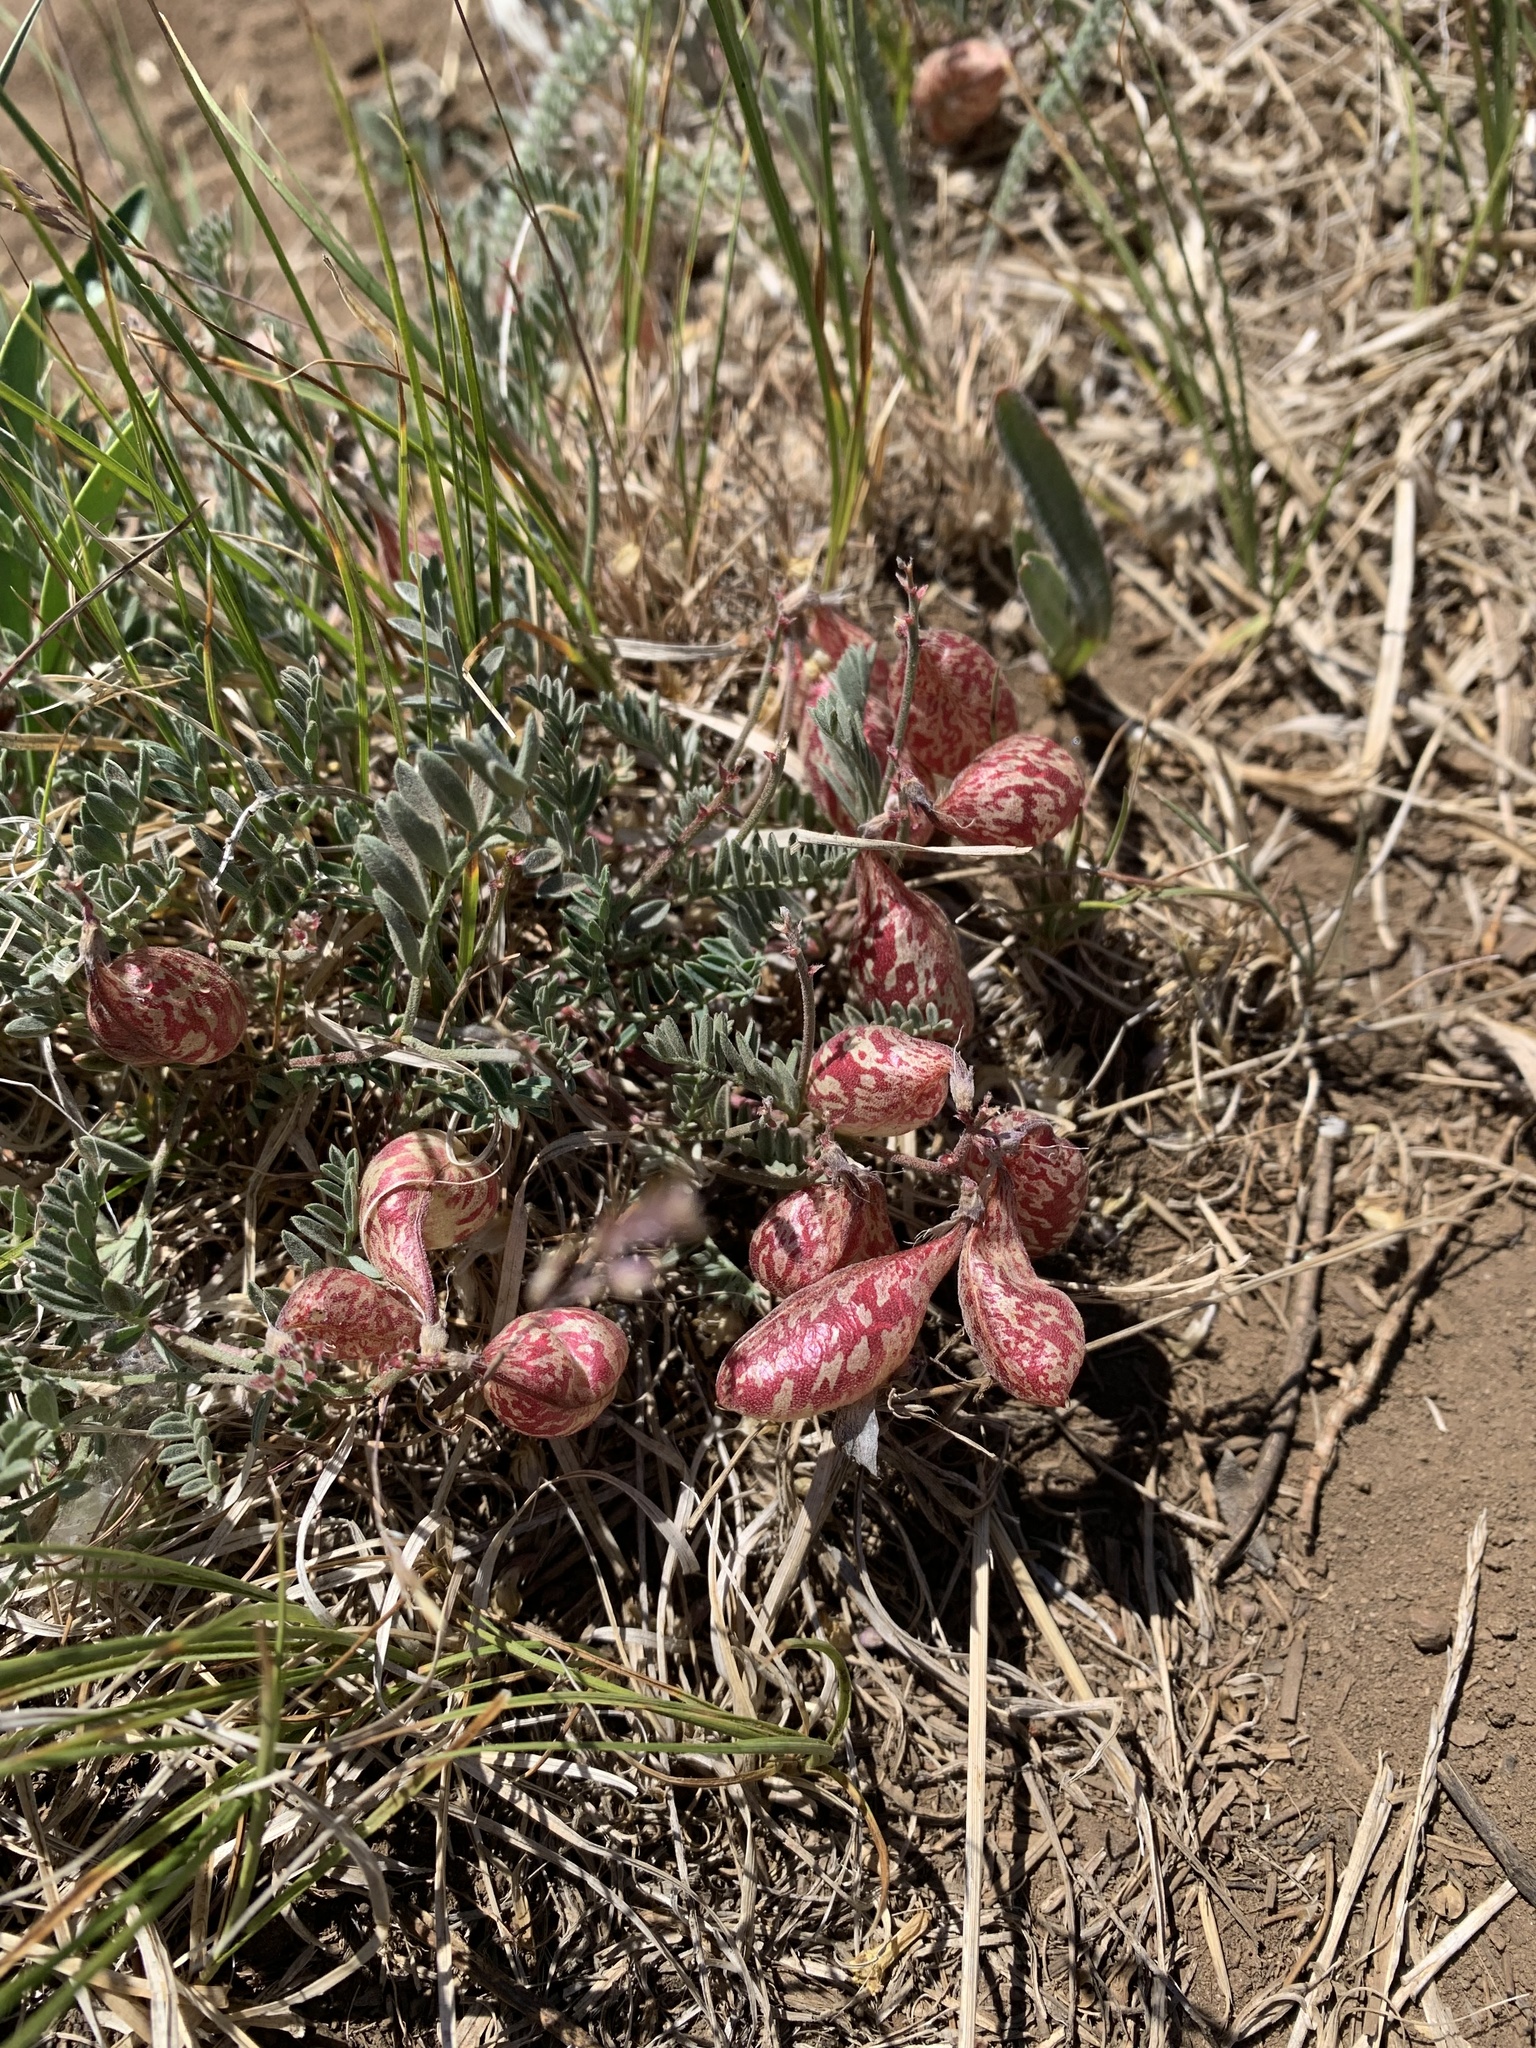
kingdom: Plantae
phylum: Tracheophyta
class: Magnoliopsida
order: Fabales
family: Fabaceae
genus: Astragalus
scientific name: Astragalus whitneyi
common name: Balloonpod milkvetch
